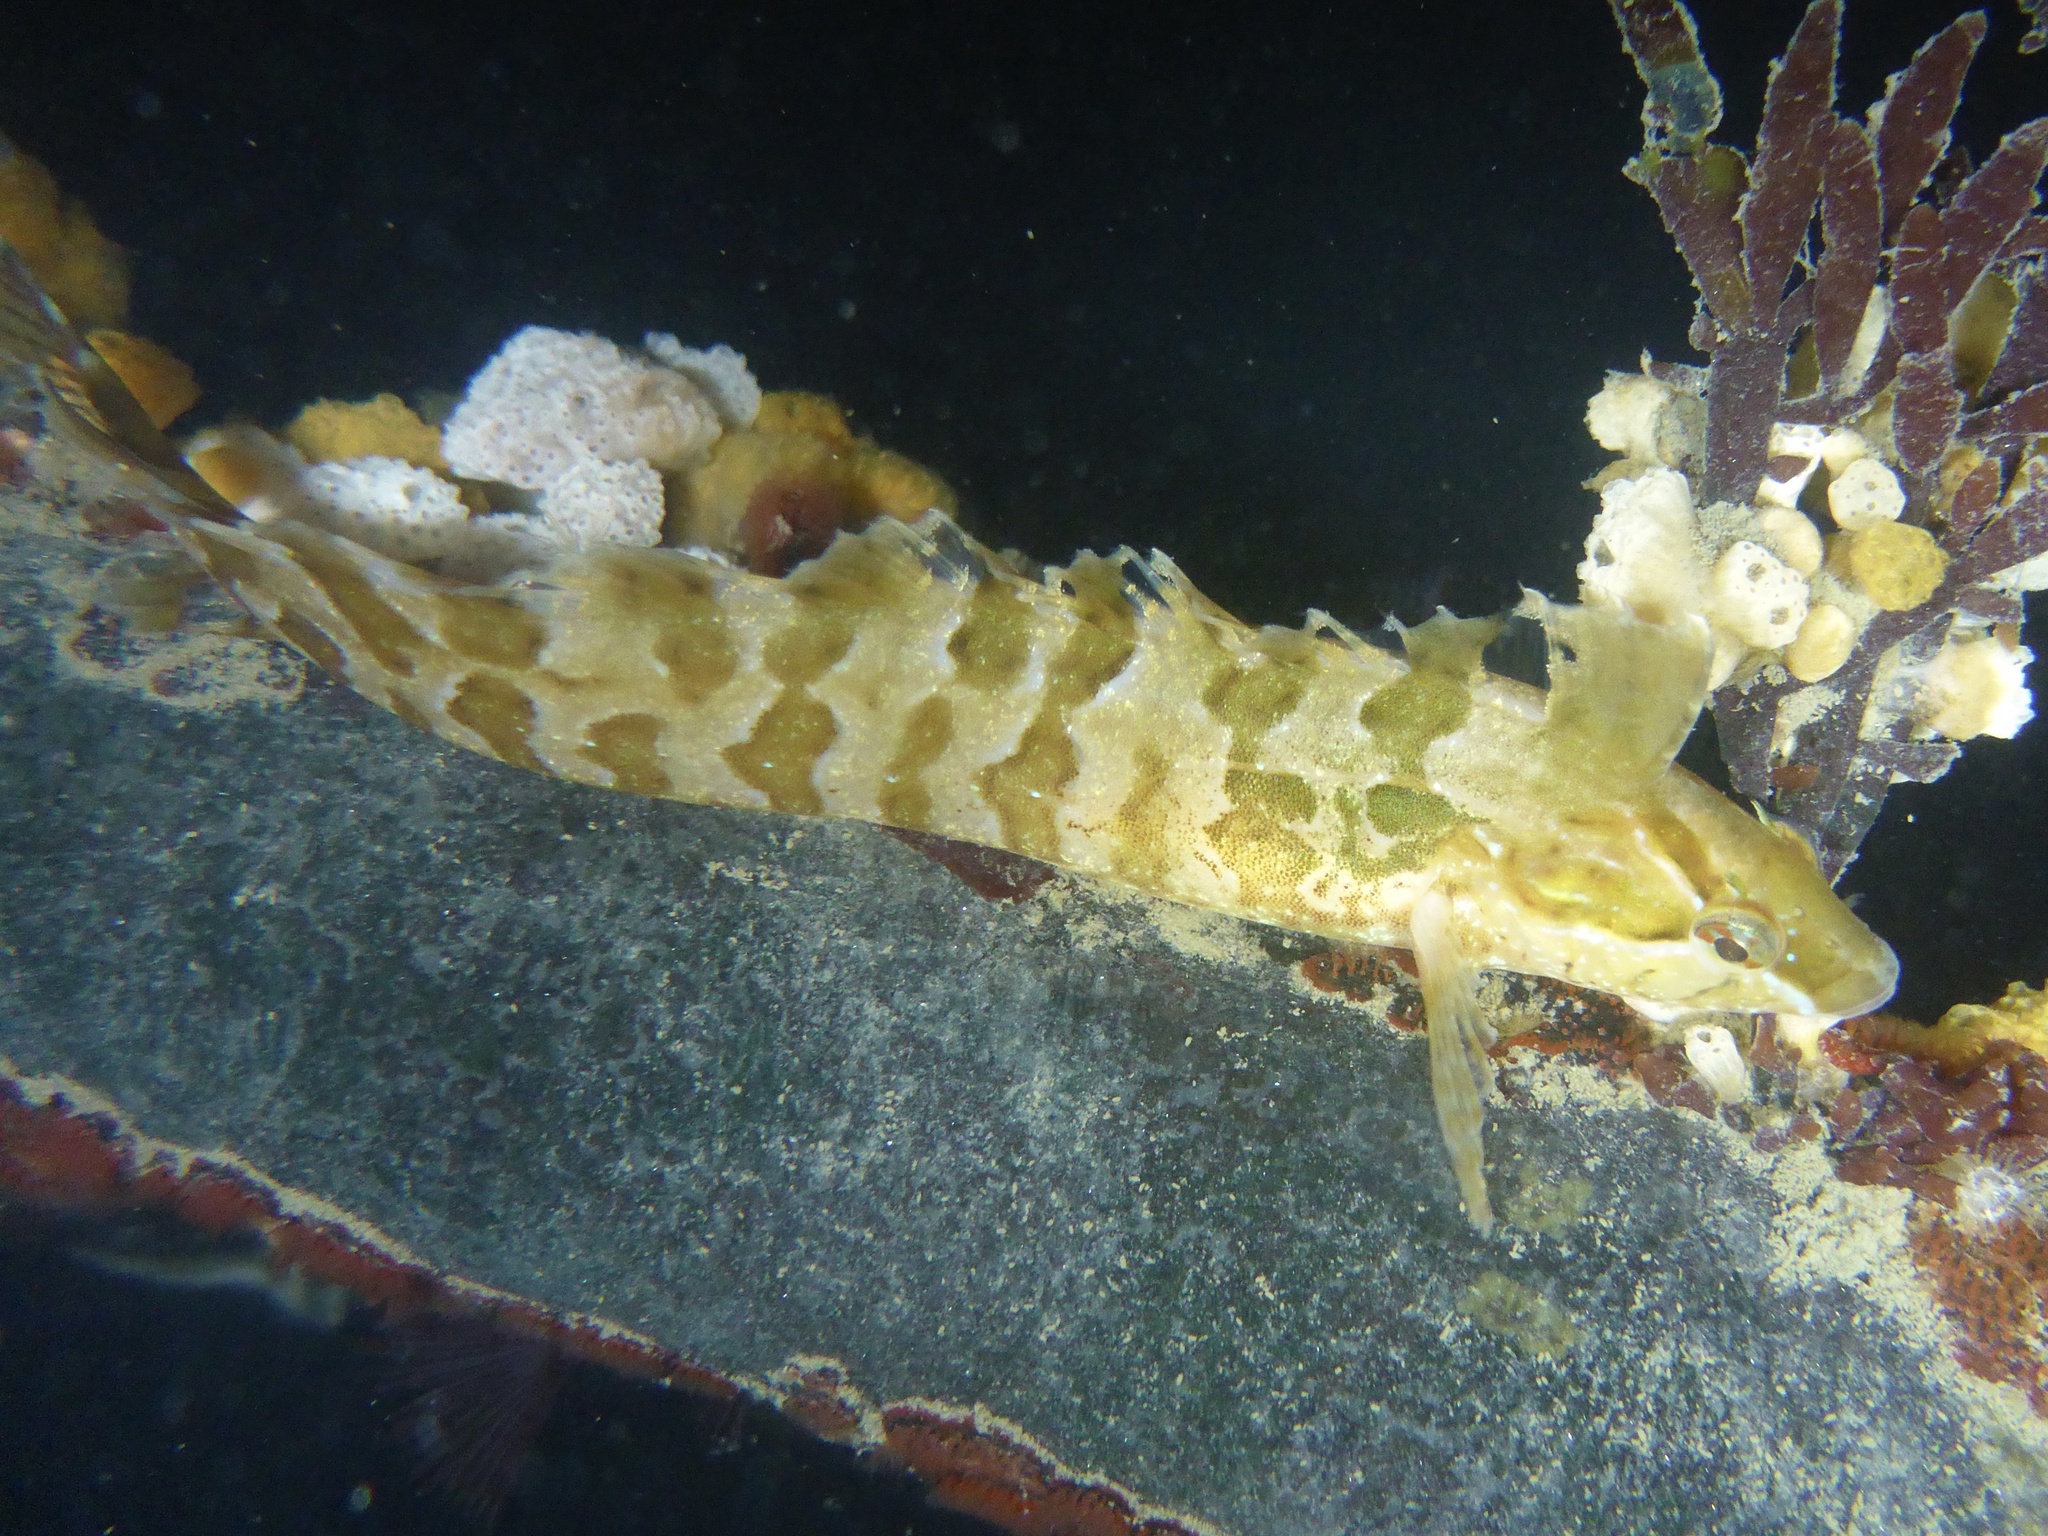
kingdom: Animalia
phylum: Chordata
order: Perciformes
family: Clinidae
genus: Gibbonsia
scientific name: Gibbonsia metzi
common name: Striped kelpfish
